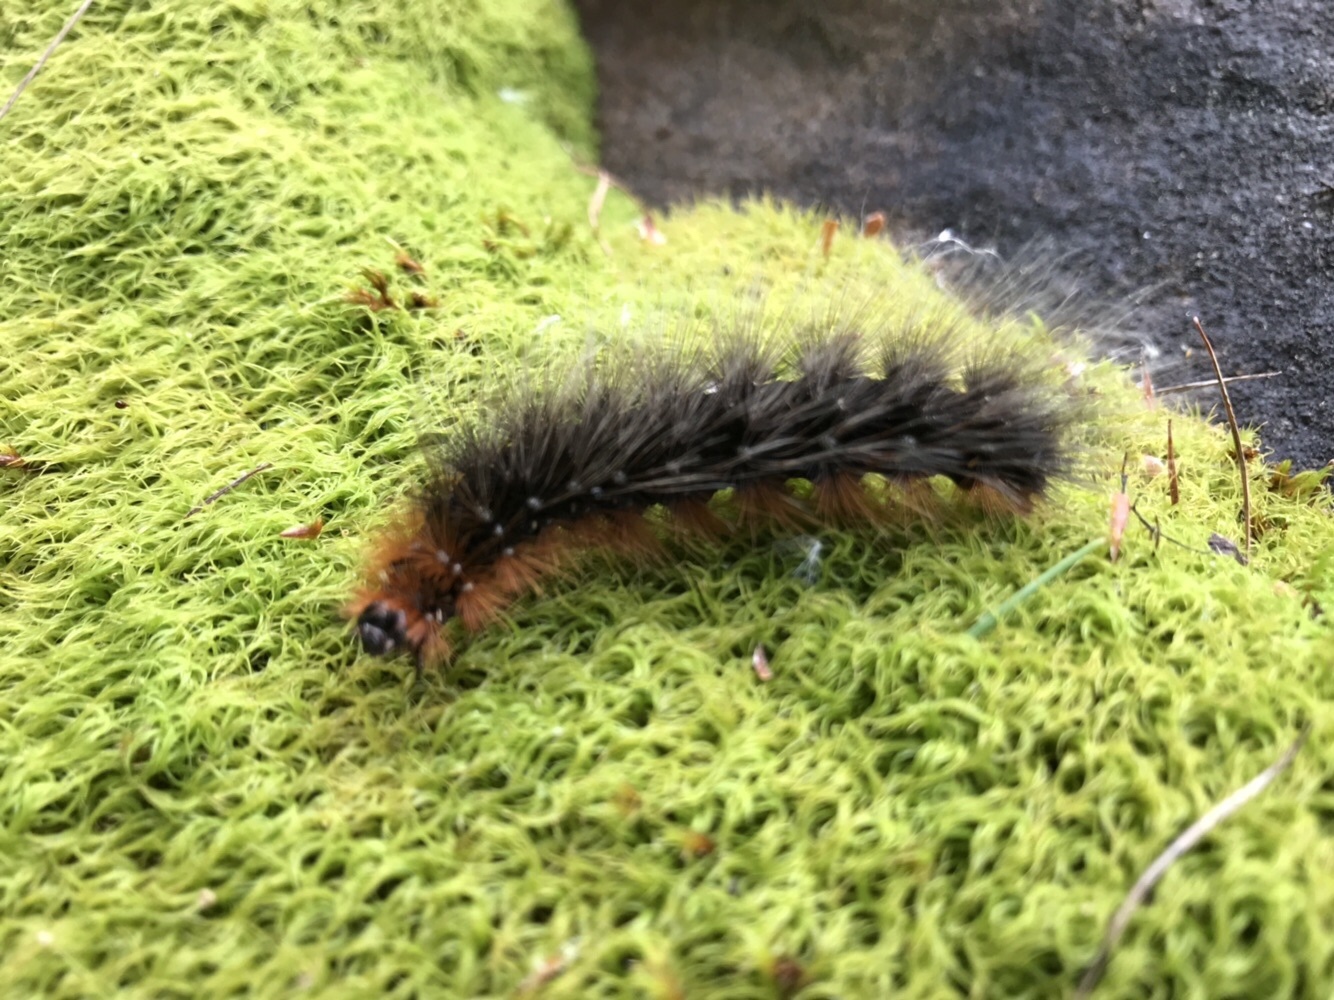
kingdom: Animalia
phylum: Arthropoda
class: Insecta
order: Lepidoptera
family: Erebidae
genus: Arctia
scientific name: Arctia caja
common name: Garden tiger
